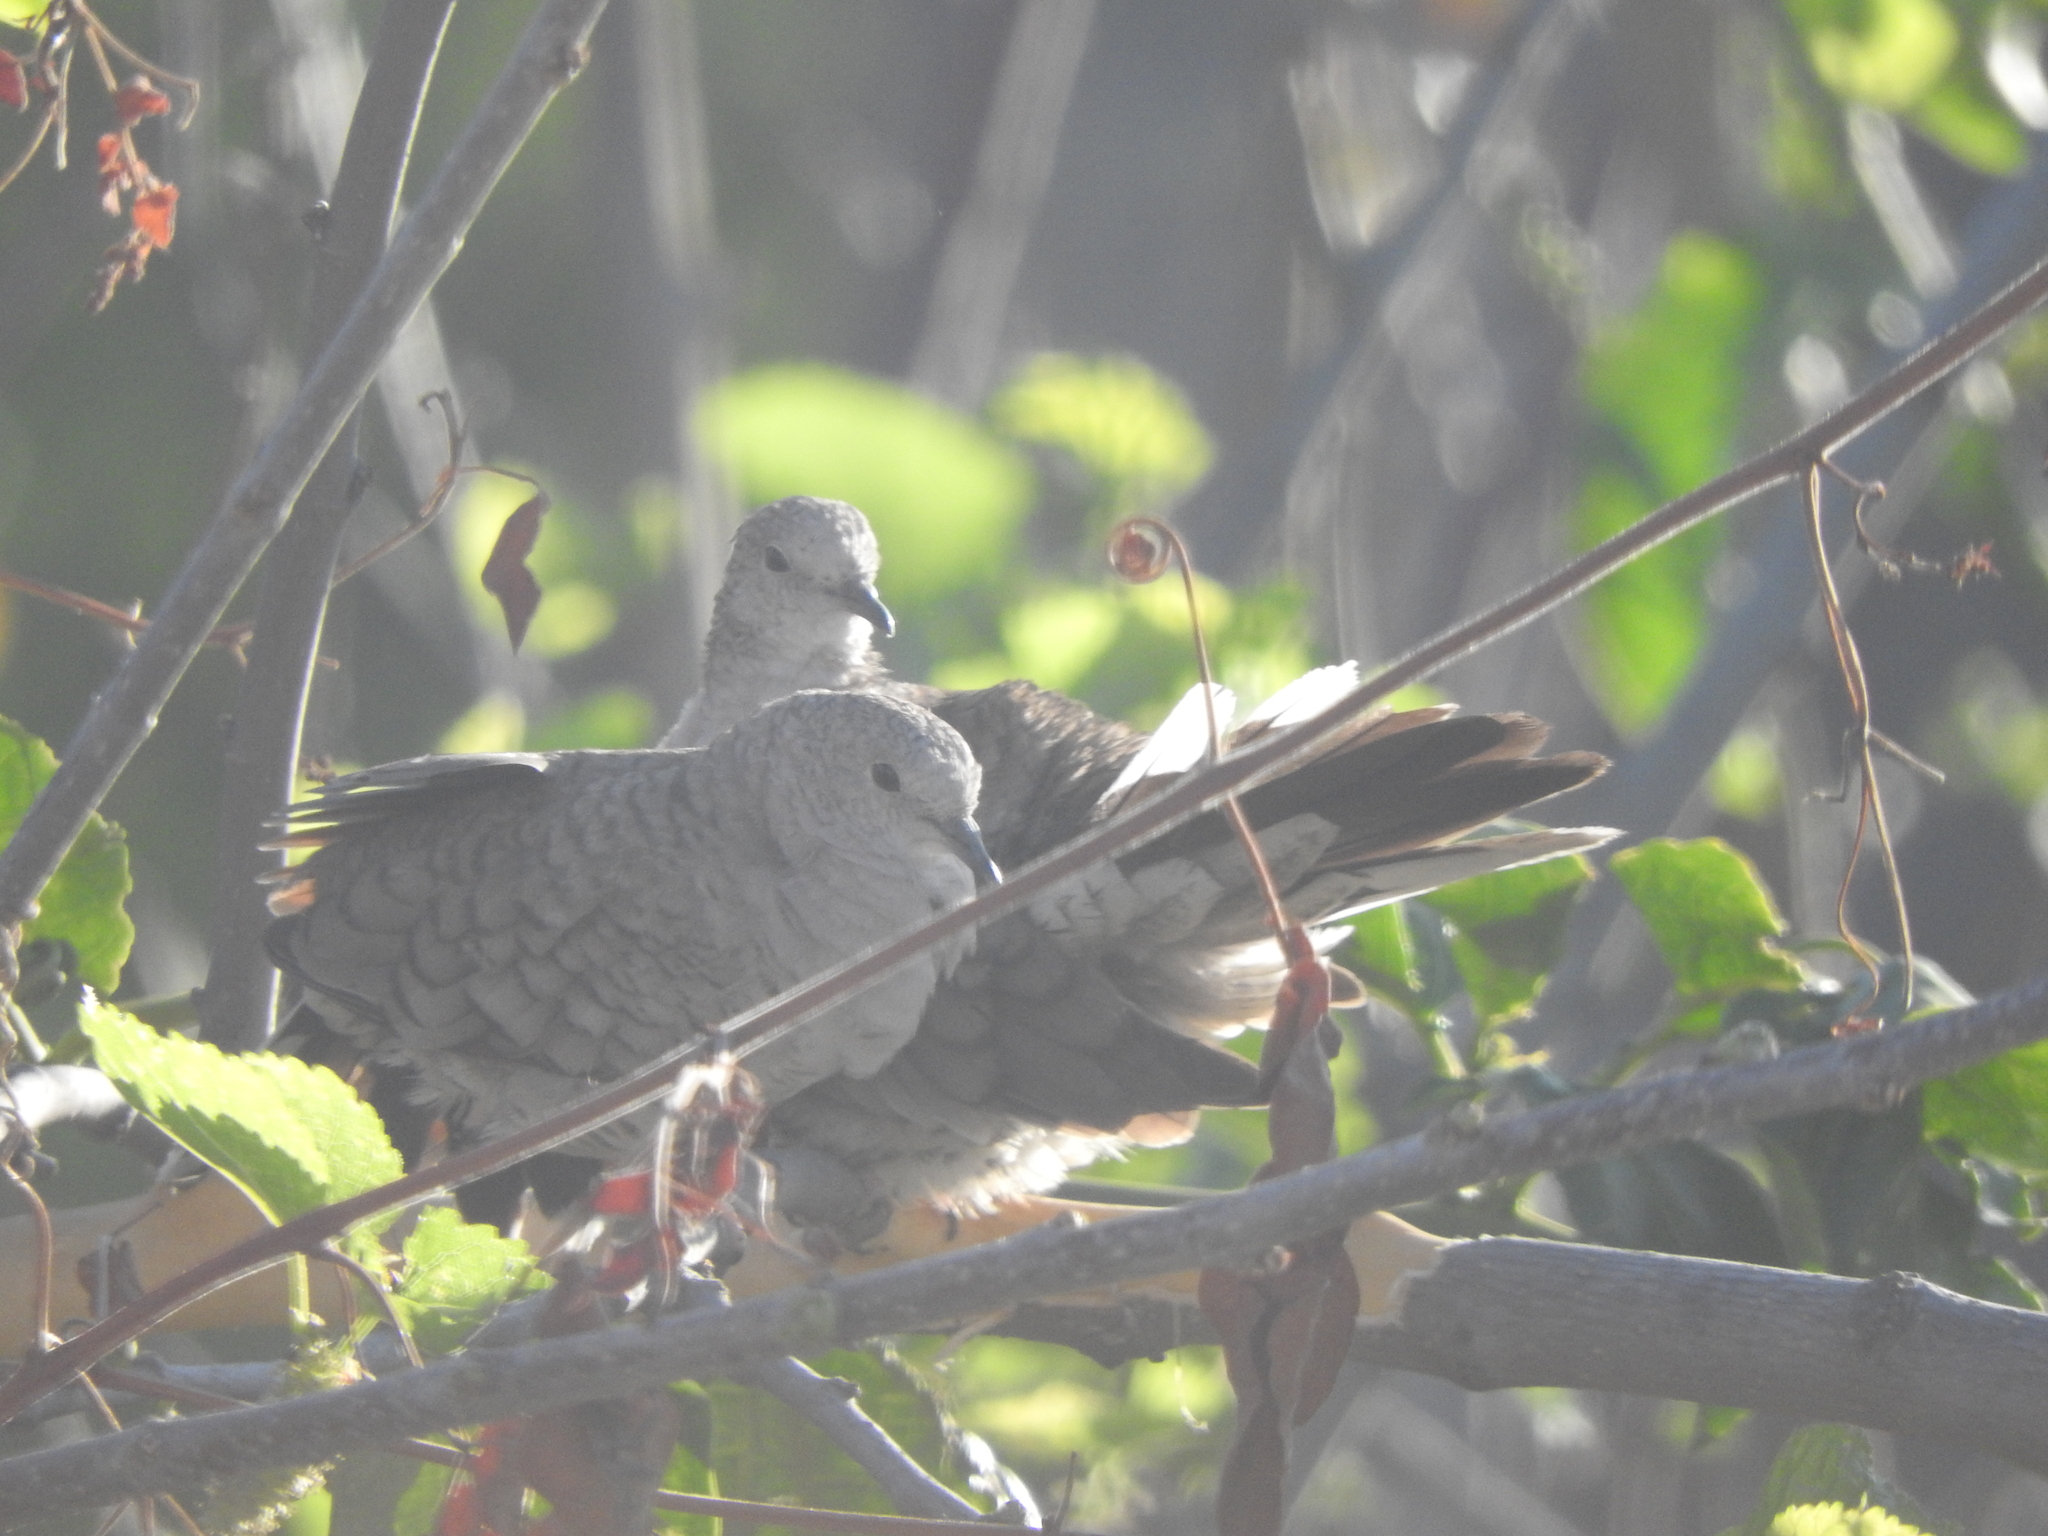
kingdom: Animalia
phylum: Chordata
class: Aves
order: Columbiformes
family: Columbidae
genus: Columbina
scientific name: Columbina inca
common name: Inca dove
